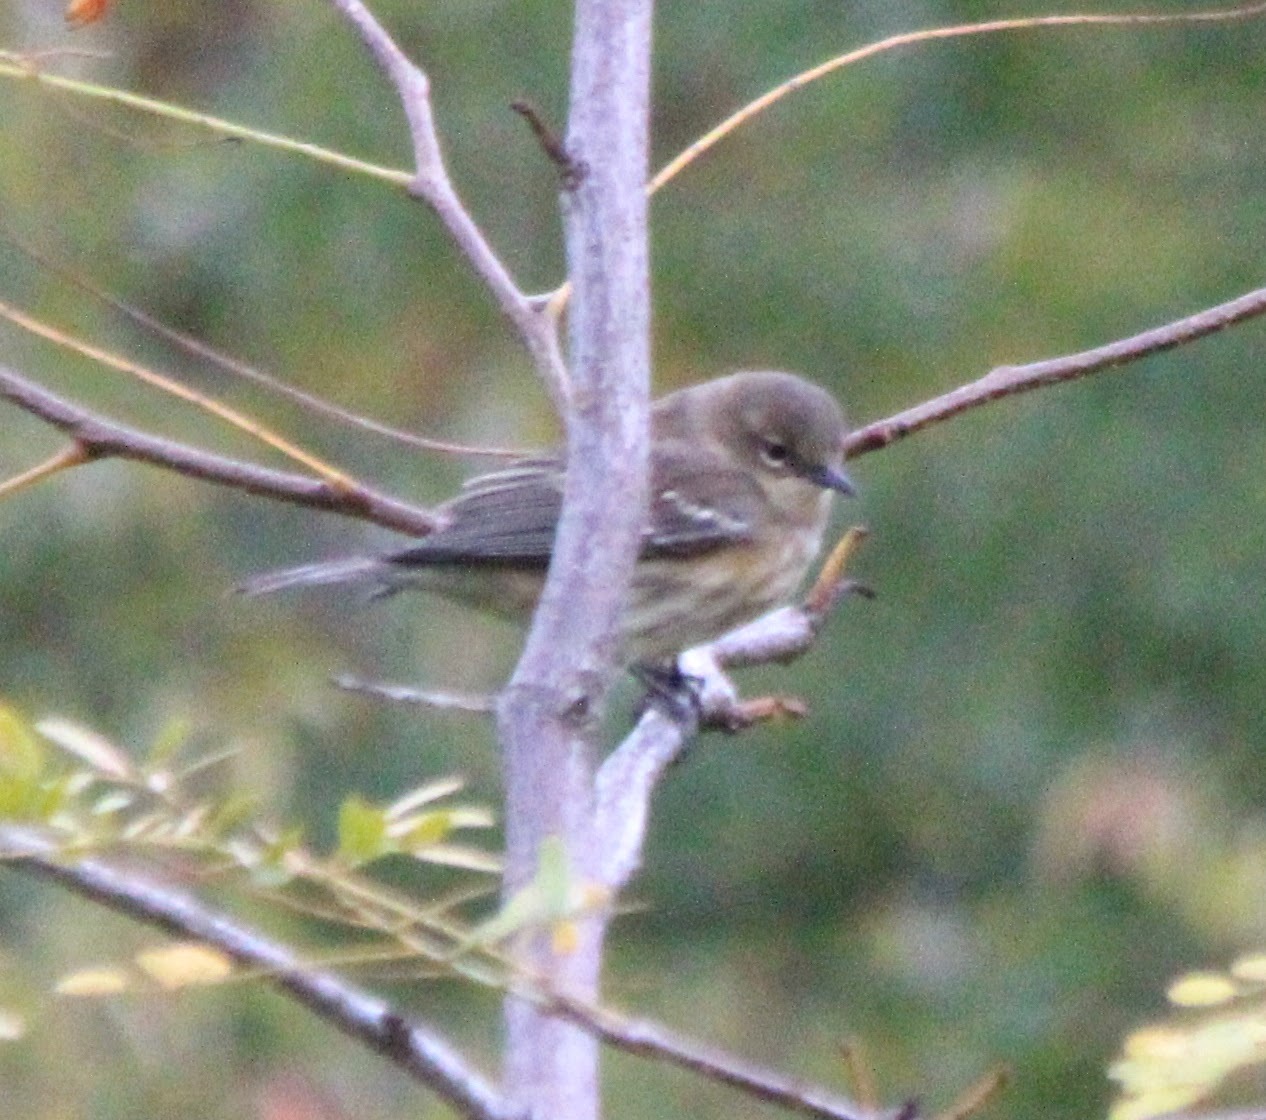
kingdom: Animalia
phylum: Chordata
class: Aves
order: Passeriformes
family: Parulidae
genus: Setophaga
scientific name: Setophaga coronata
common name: Myrtle warbler
